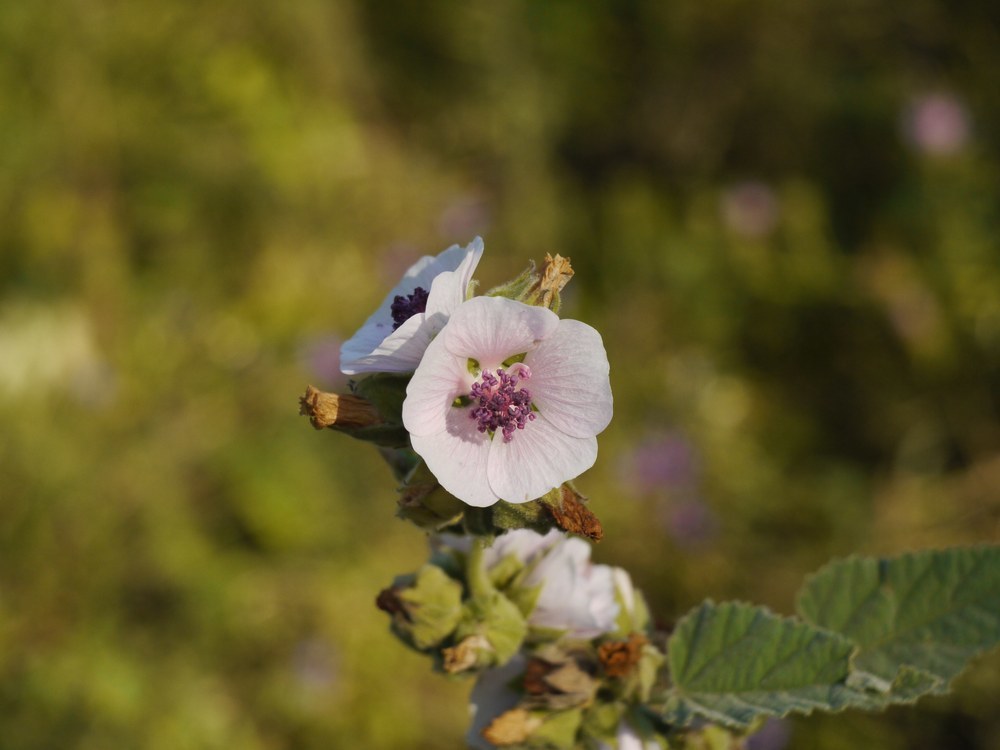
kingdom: Plantae
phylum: Tracheophyta
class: Magnoliopsida
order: Malvales
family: Malvaceae
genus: Althaea
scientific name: Althaea officinalis
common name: Marsh-mallow
